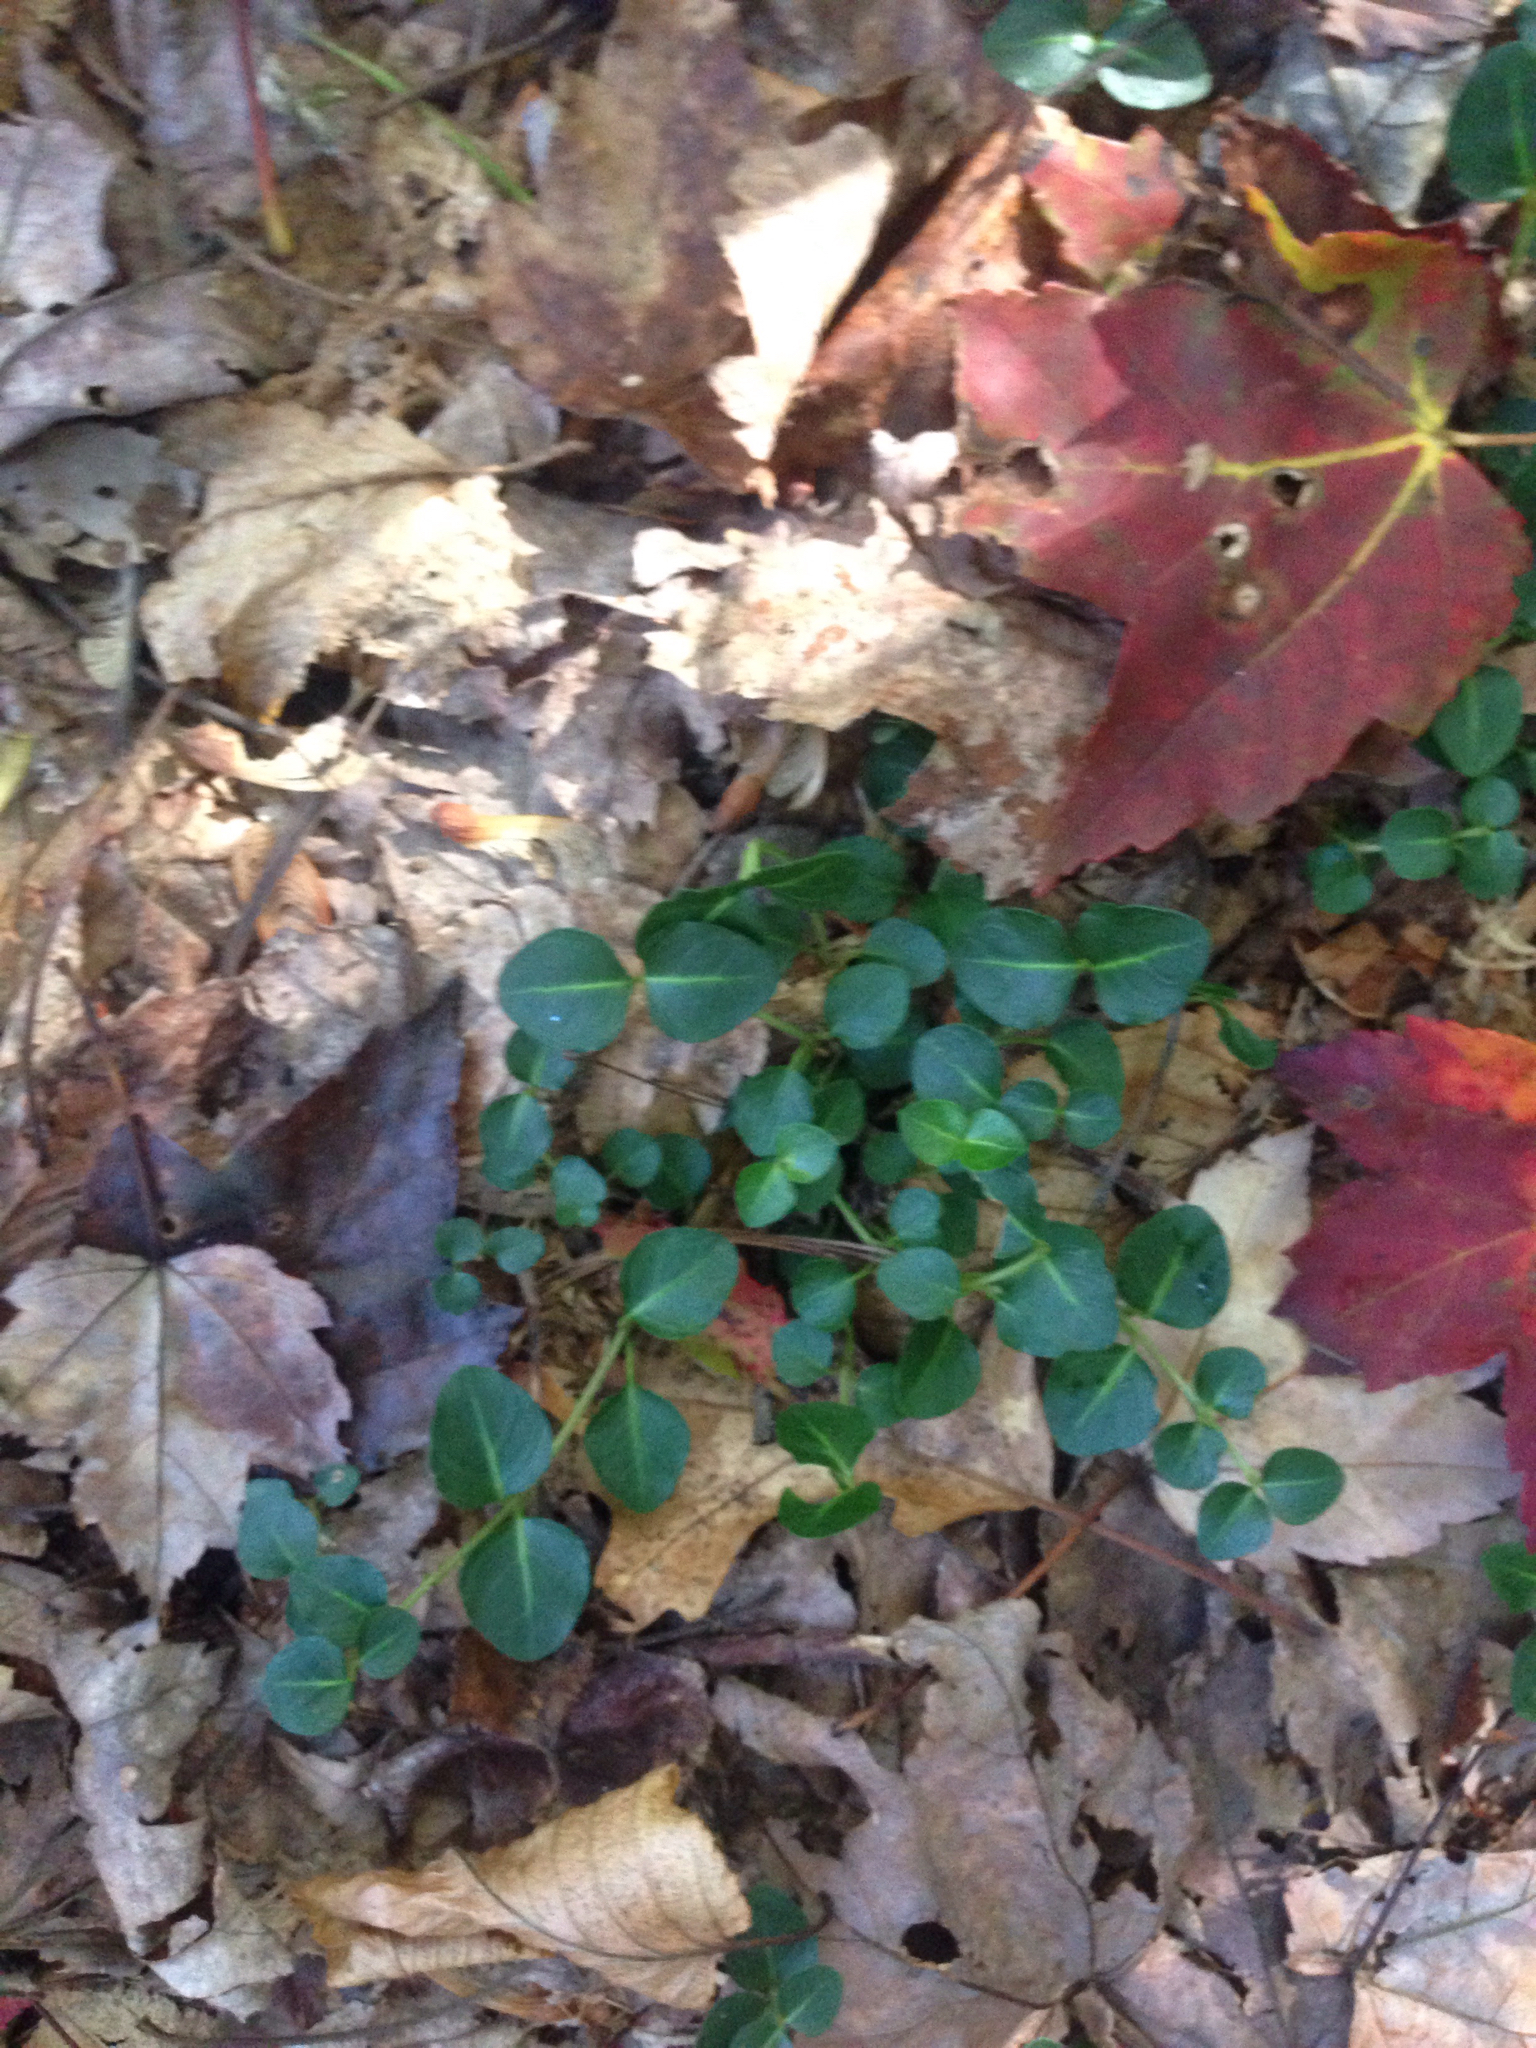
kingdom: Plantae
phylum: Tracheophyta
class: Magnoliopsida
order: Gentianales
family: Rubiaceae
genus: Mitchella
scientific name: Mitchella repens
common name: Partridge-berry
